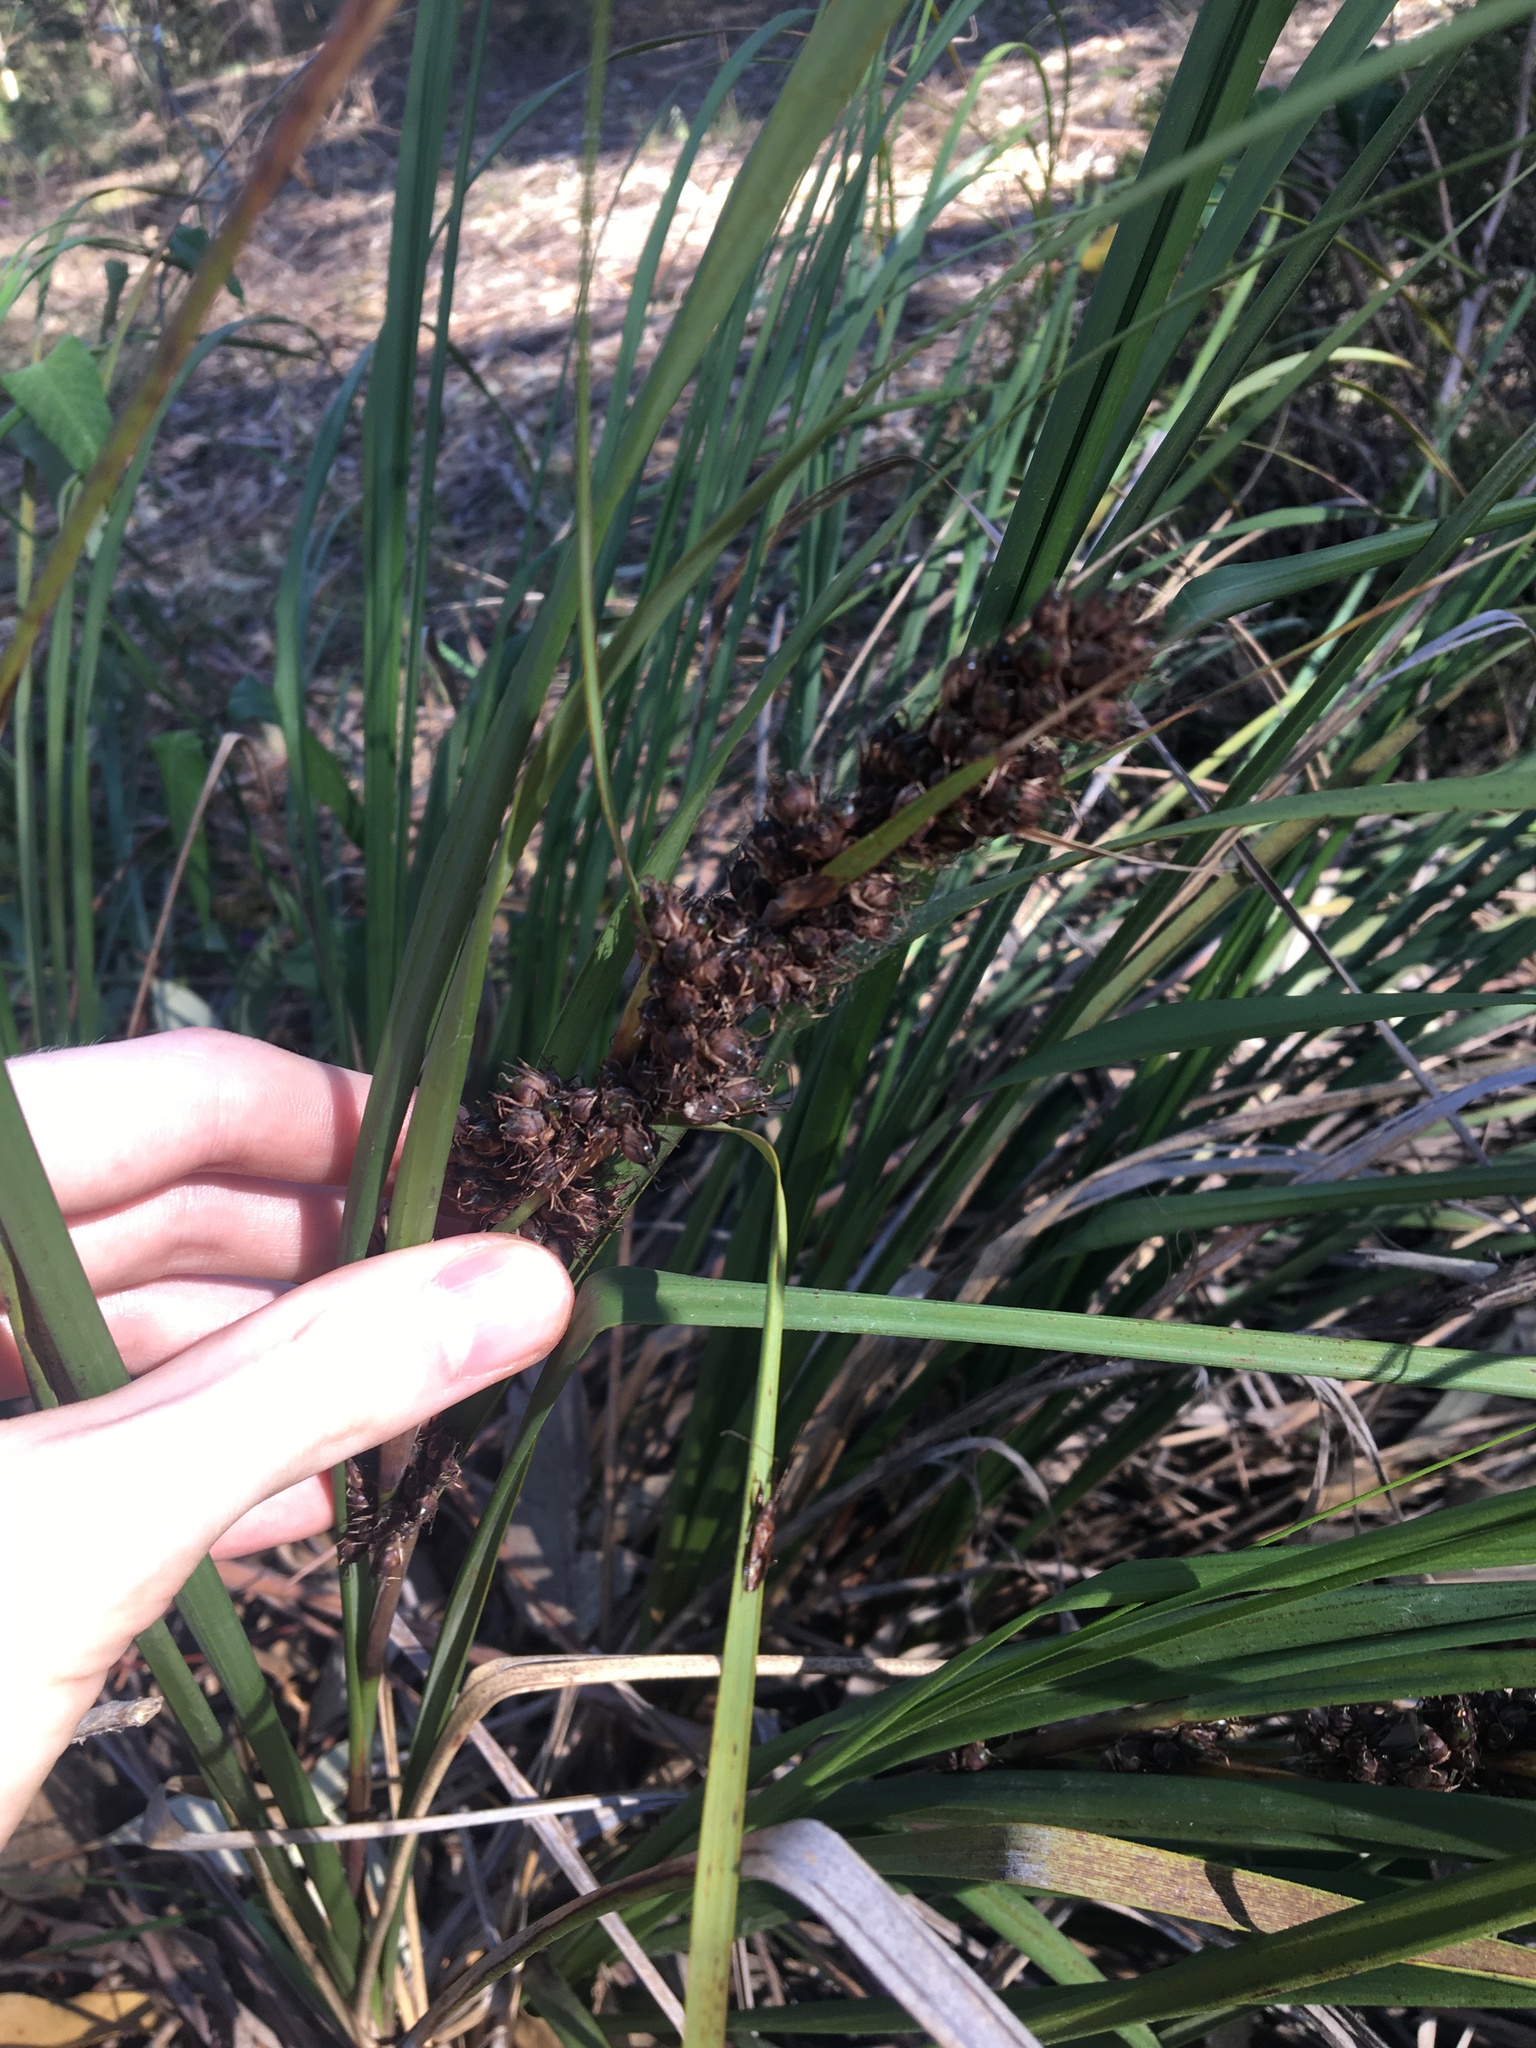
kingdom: Plantae
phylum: Tracheophyta
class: Liliopsida
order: Poales
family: Cyperaceae
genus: Gahnia
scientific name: Gahnia aspera
